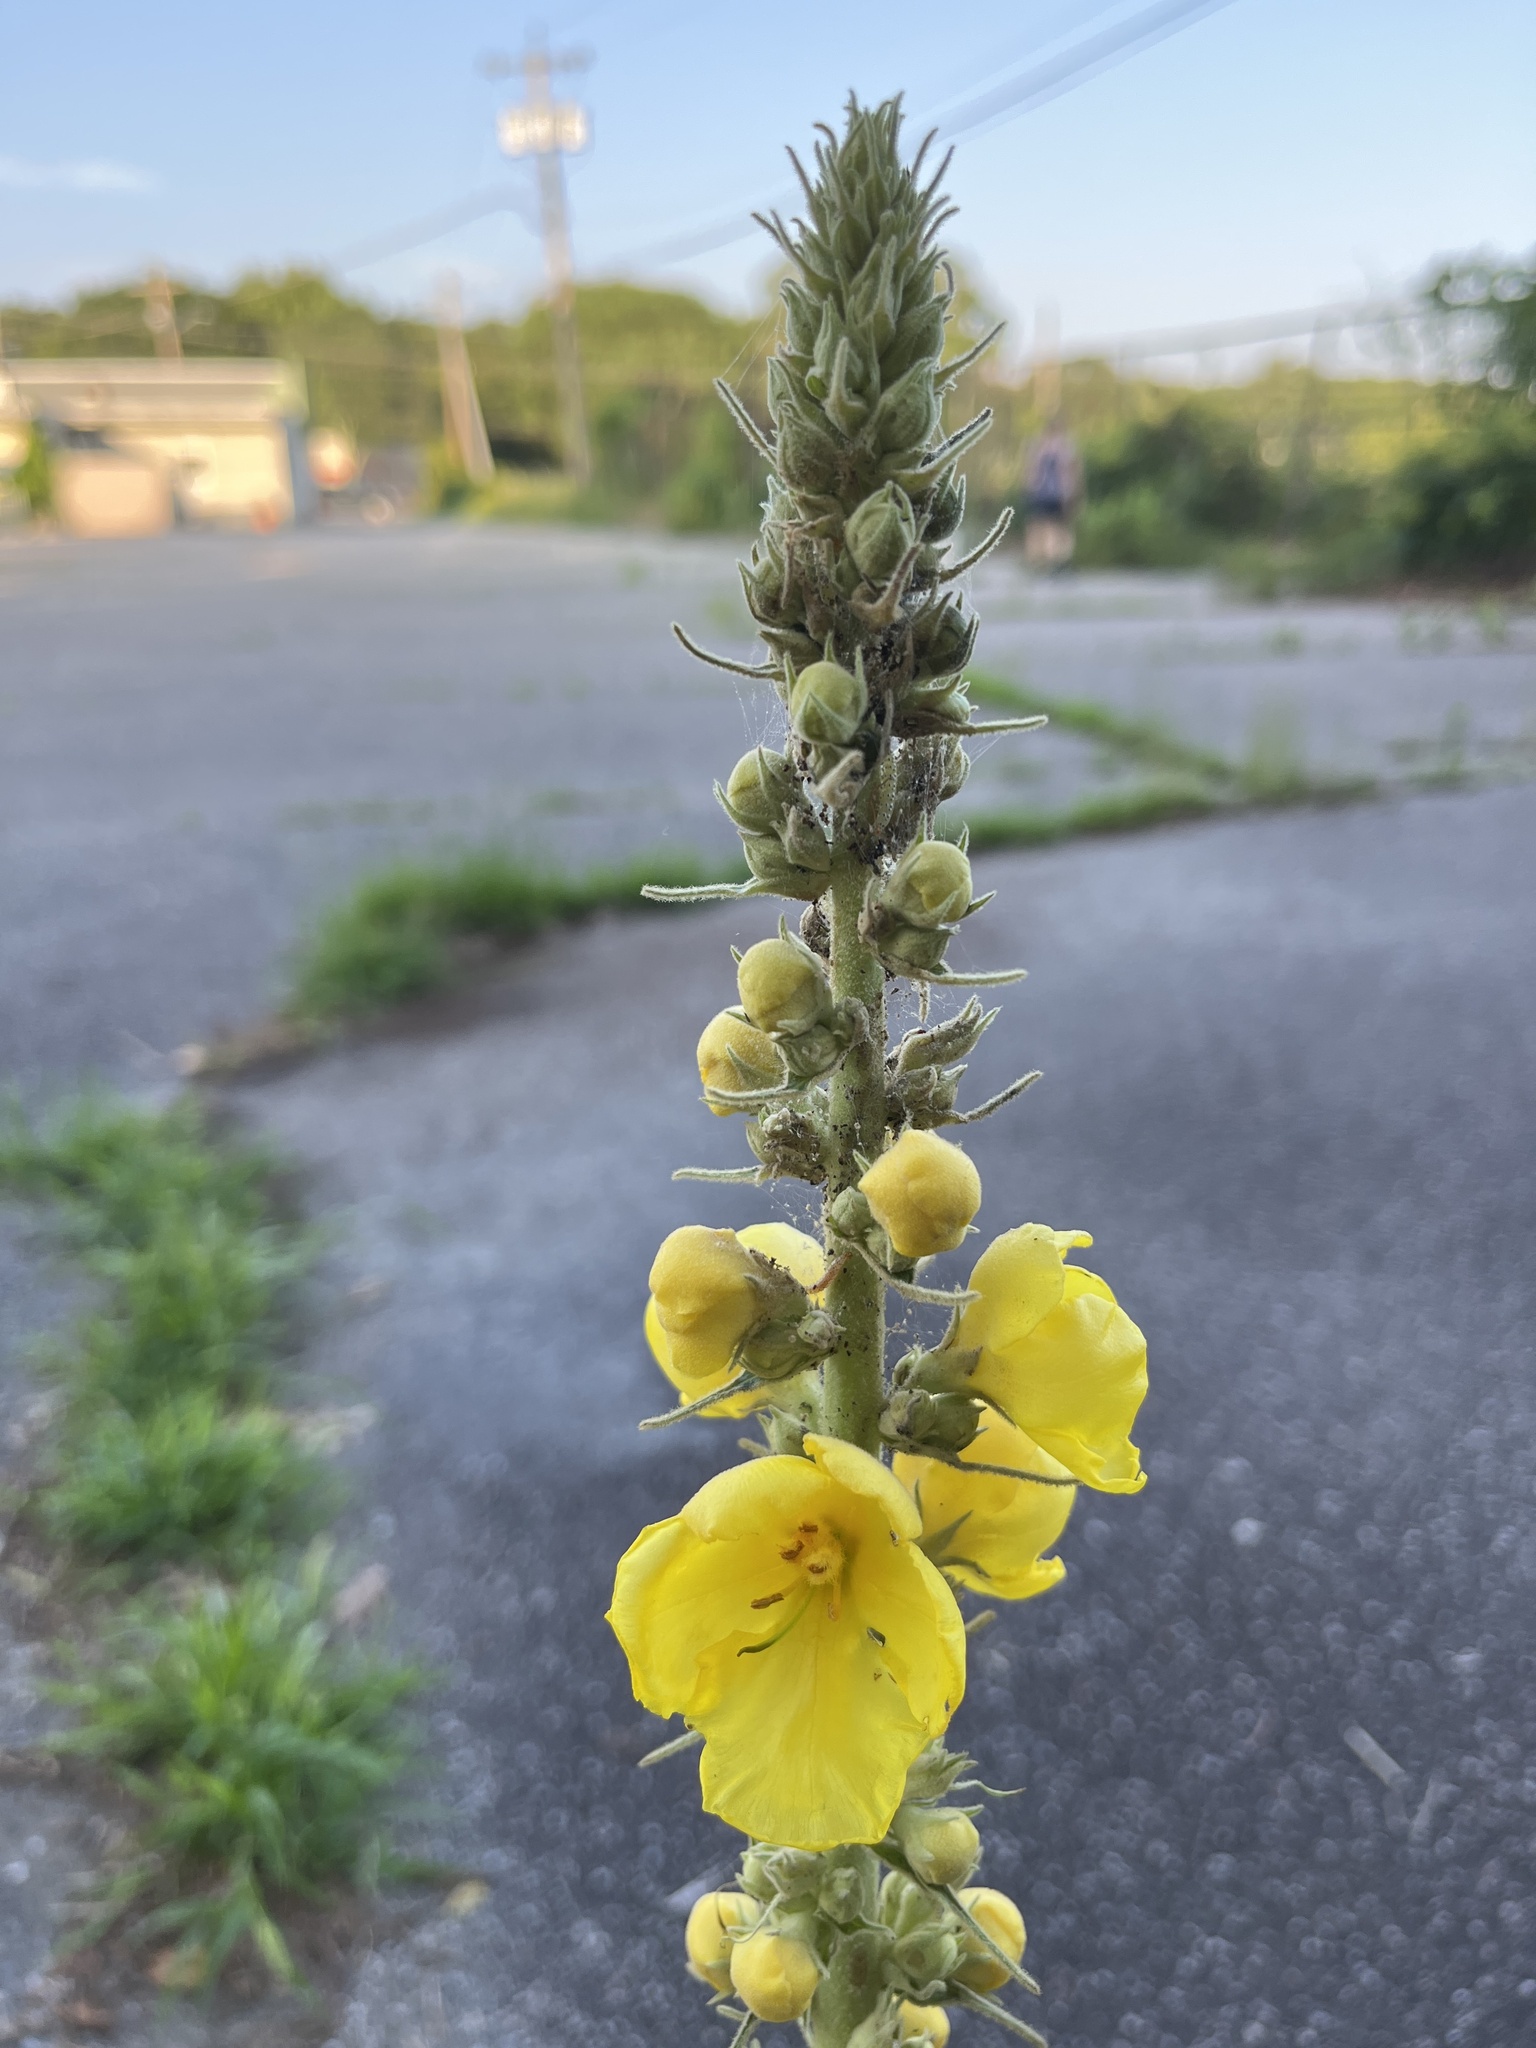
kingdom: Plantae
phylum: Tracheophyta
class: Magnoliopsida
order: Lamiales
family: Scrophulariaceae
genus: Verbascum
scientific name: Verbascum phlomoides
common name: Orange mullein
